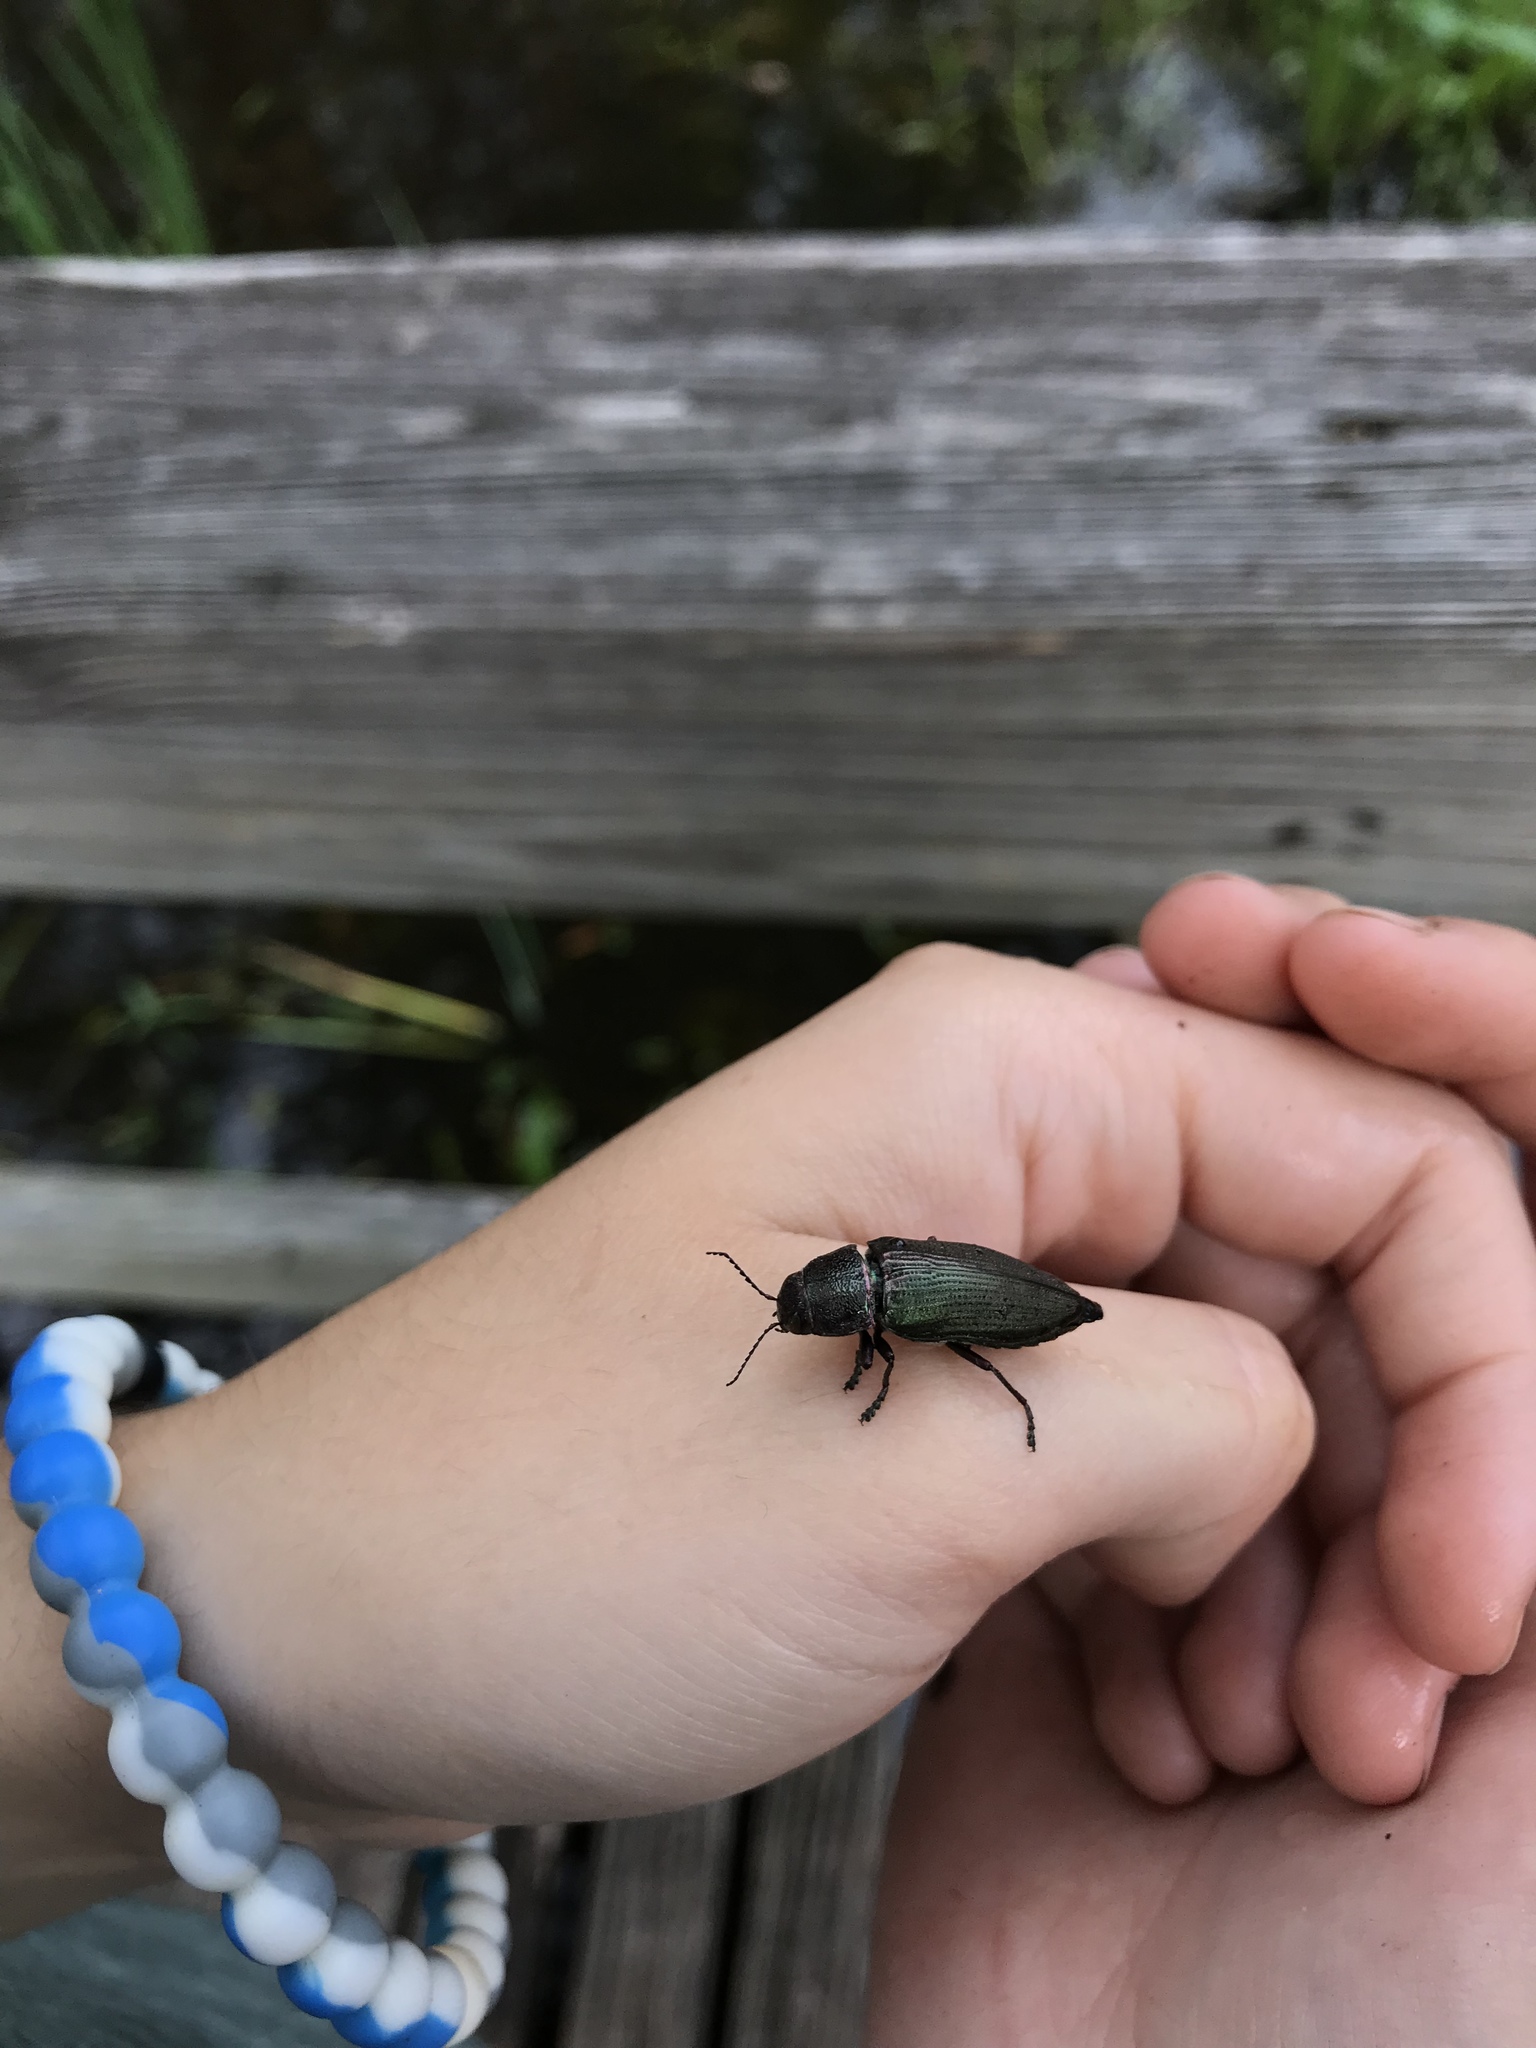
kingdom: Animalia
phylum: Arthropoda
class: Insecta
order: Coleoptera
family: Buprestidae
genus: Buprestis
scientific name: Buprestis apricans
